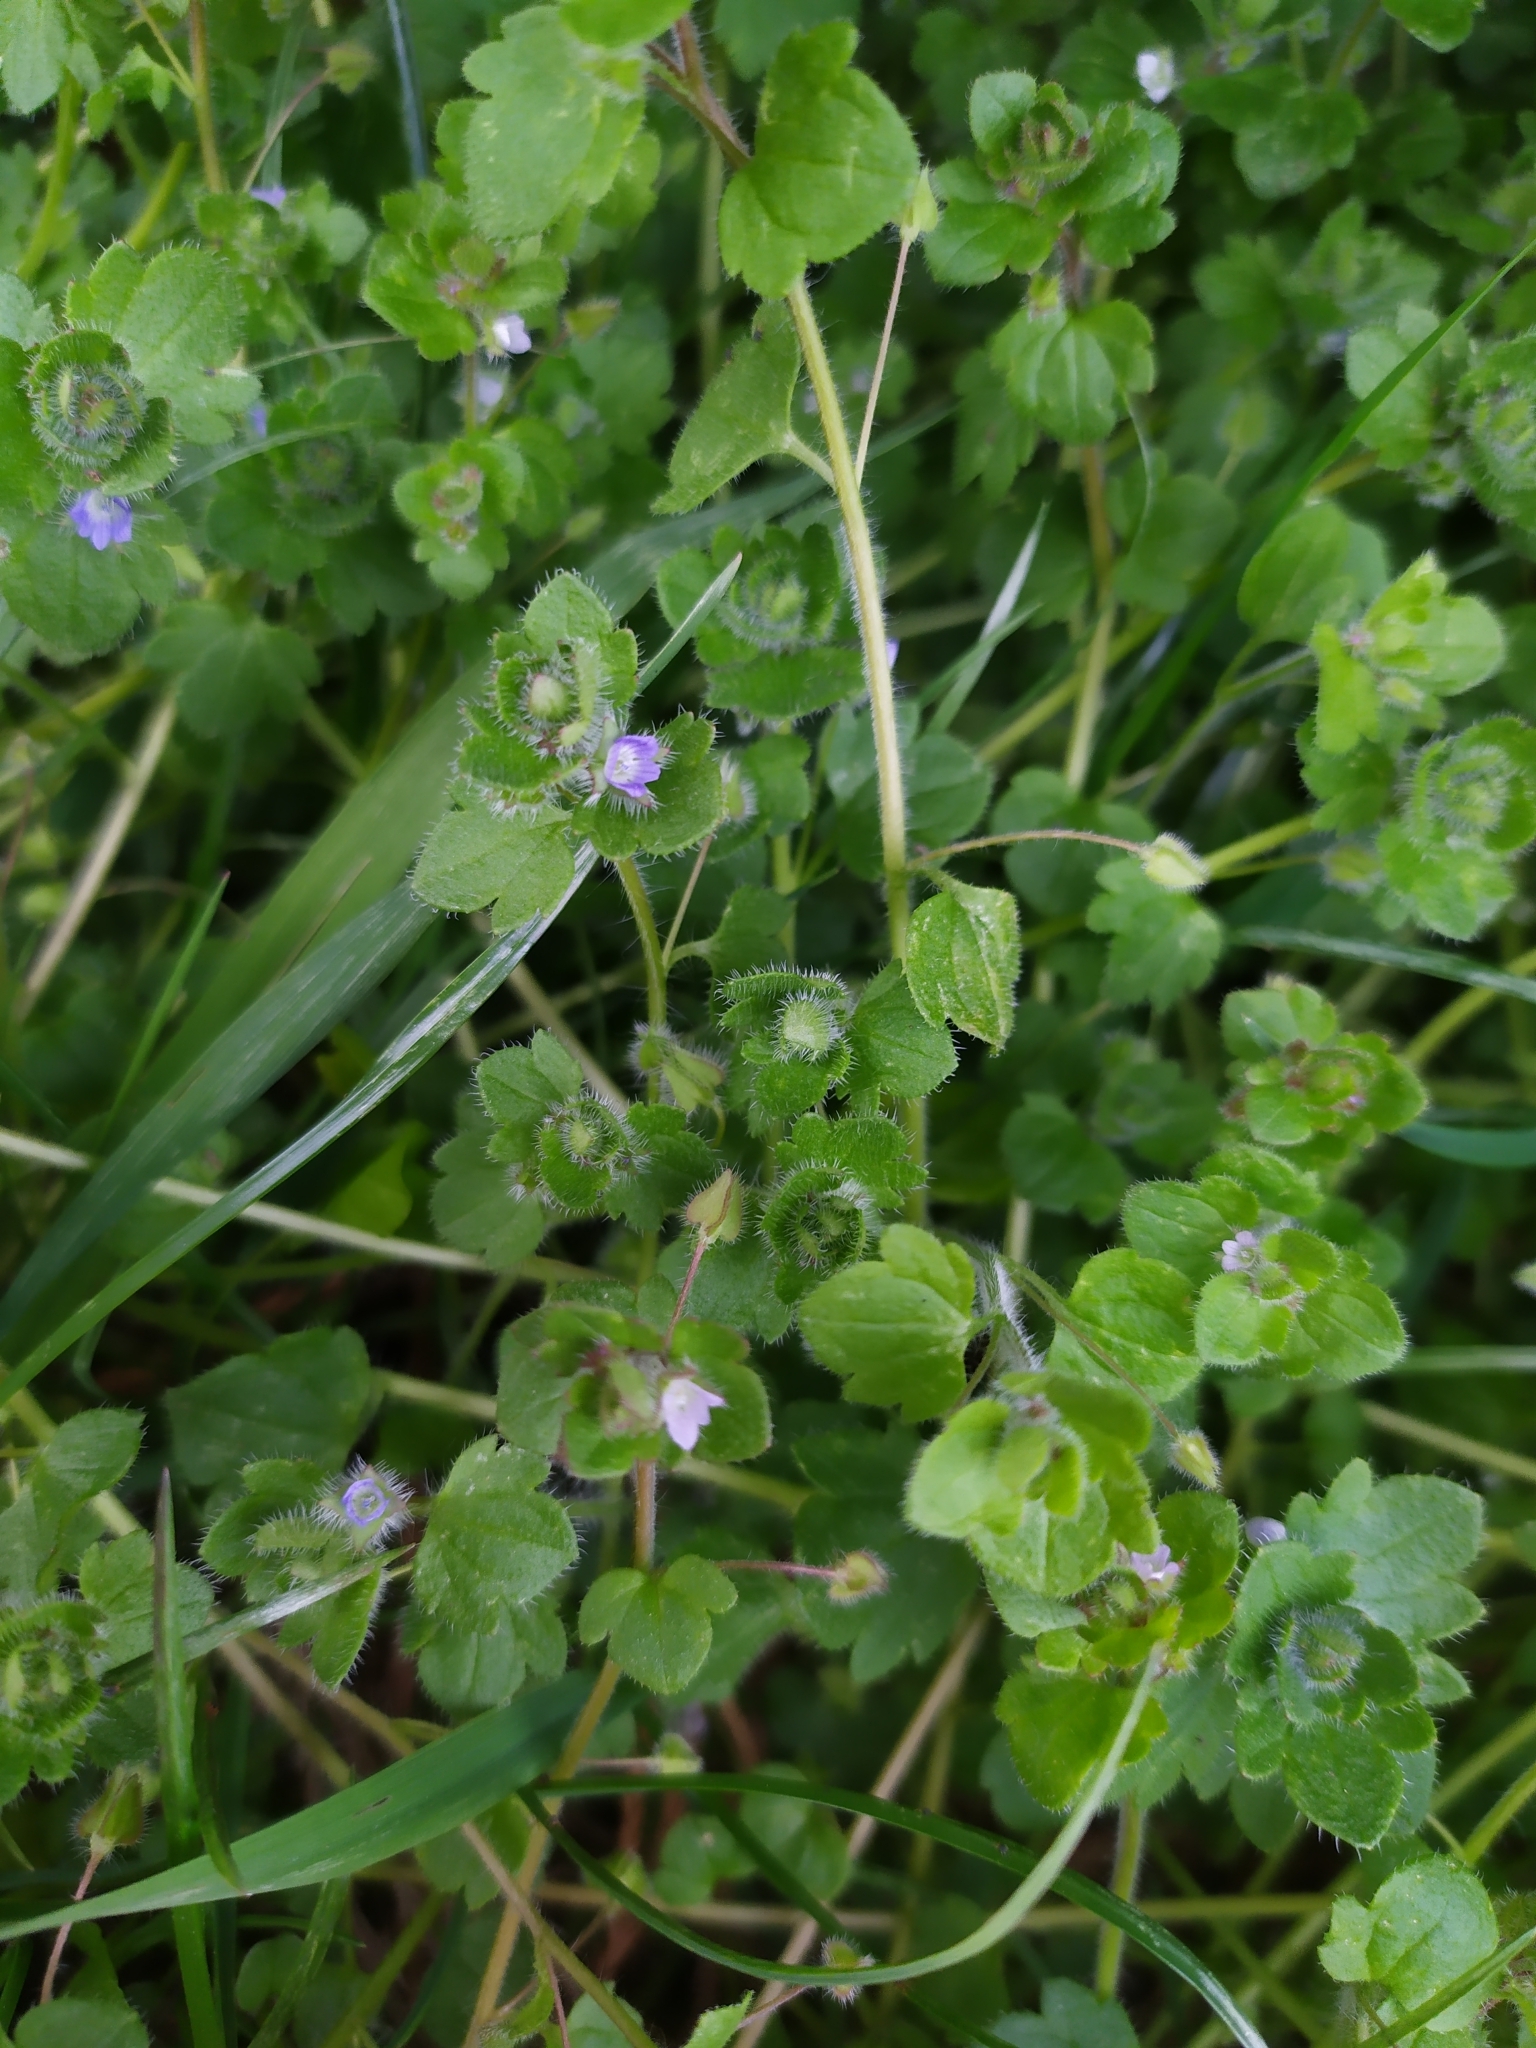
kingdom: Plantae
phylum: Tracheophyta
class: Magnoliopsida
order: Lamiales
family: Plantaginaceae
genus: Veronica
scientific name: Veronica hederifolia
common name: Ivy-leaved speedwell
